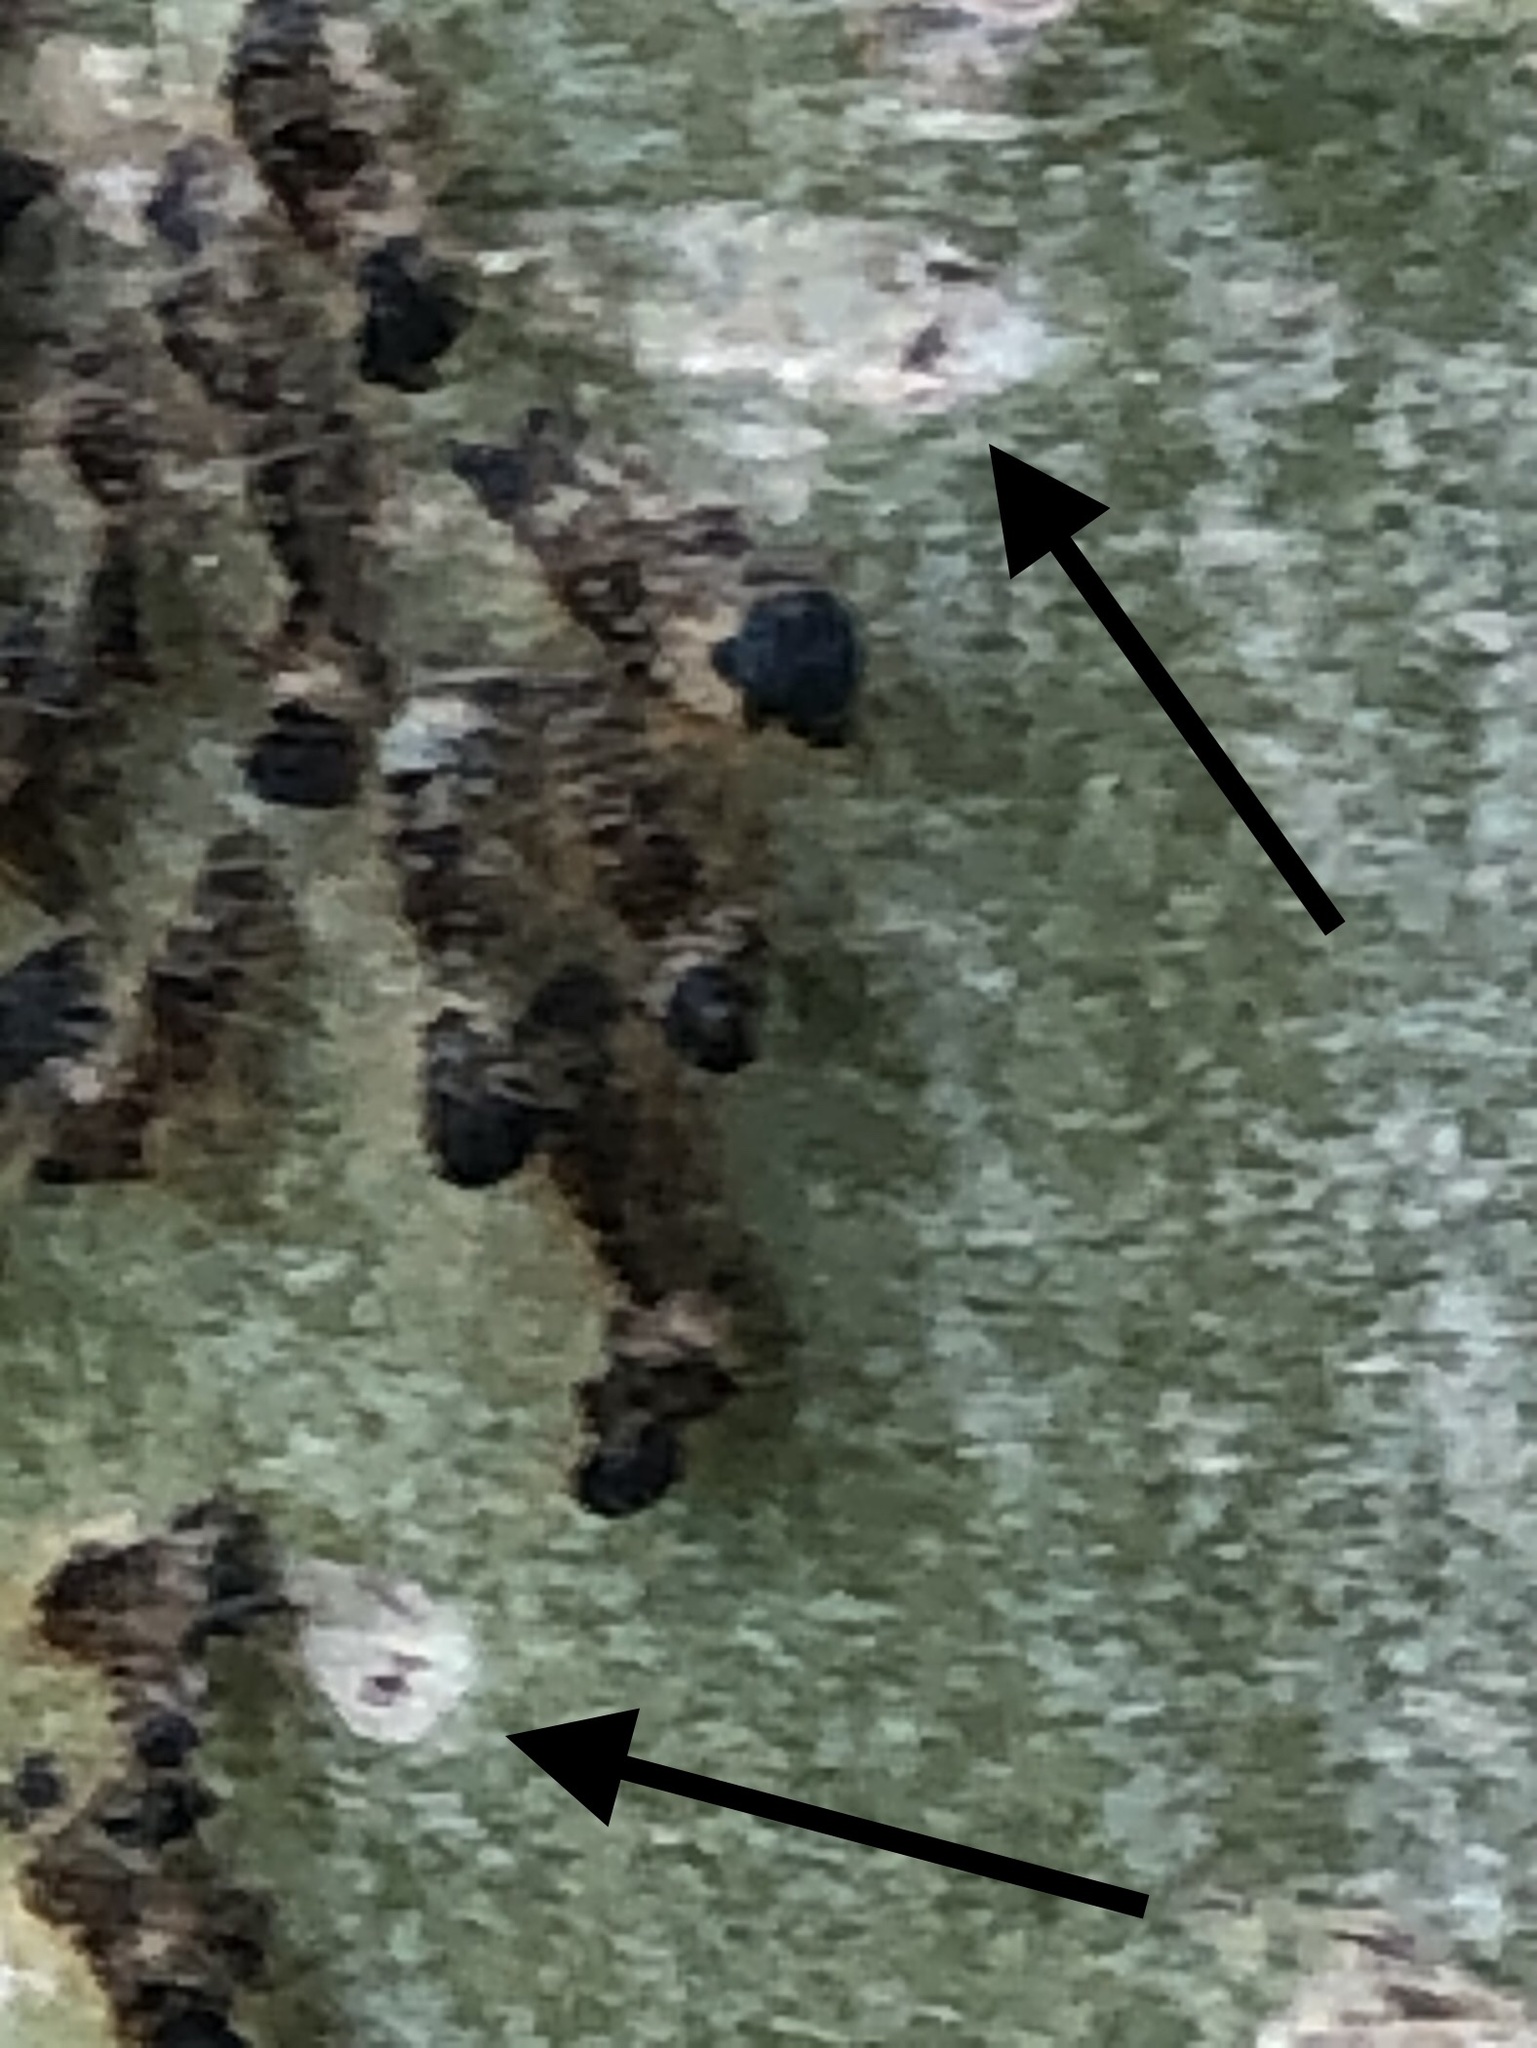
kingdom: Plantae
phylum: Tracheophyta
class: Magnoliopsida
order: Malpighiales
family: Salicaceae
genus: Populus
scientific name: Populus tremuloides
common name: Quaking aspen
